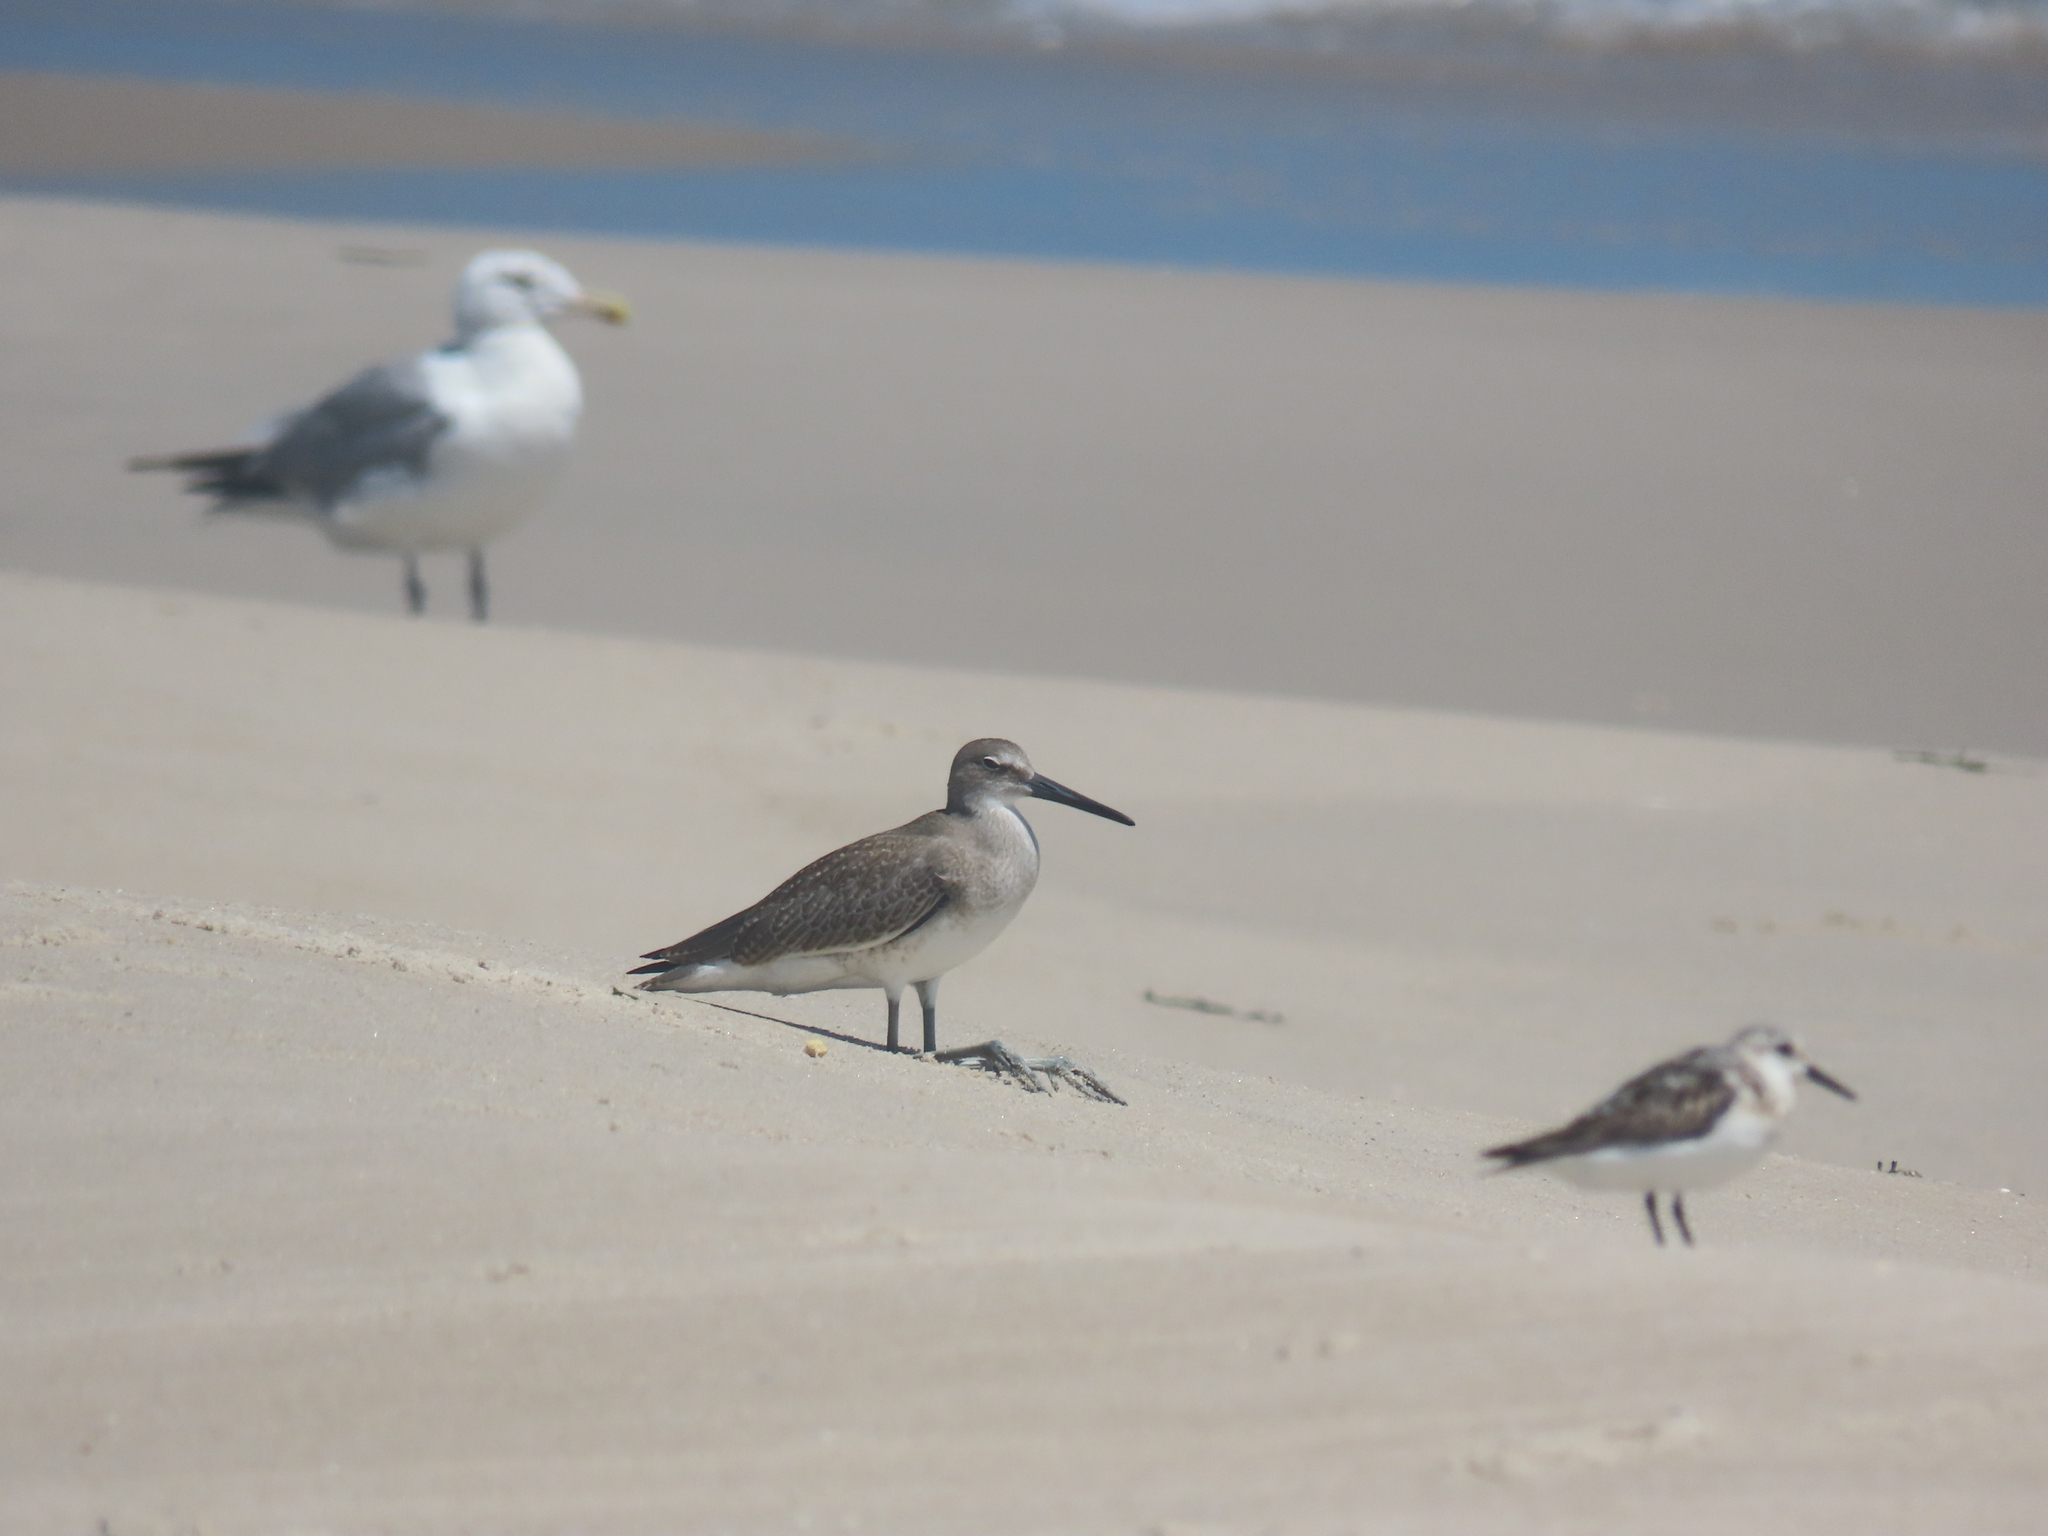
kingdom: Animalia
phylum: Chordata
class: Aves
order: Charadriiformes
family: Scolopacidae
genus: Tringa
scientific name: Tringa semipalmata
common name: Willet
